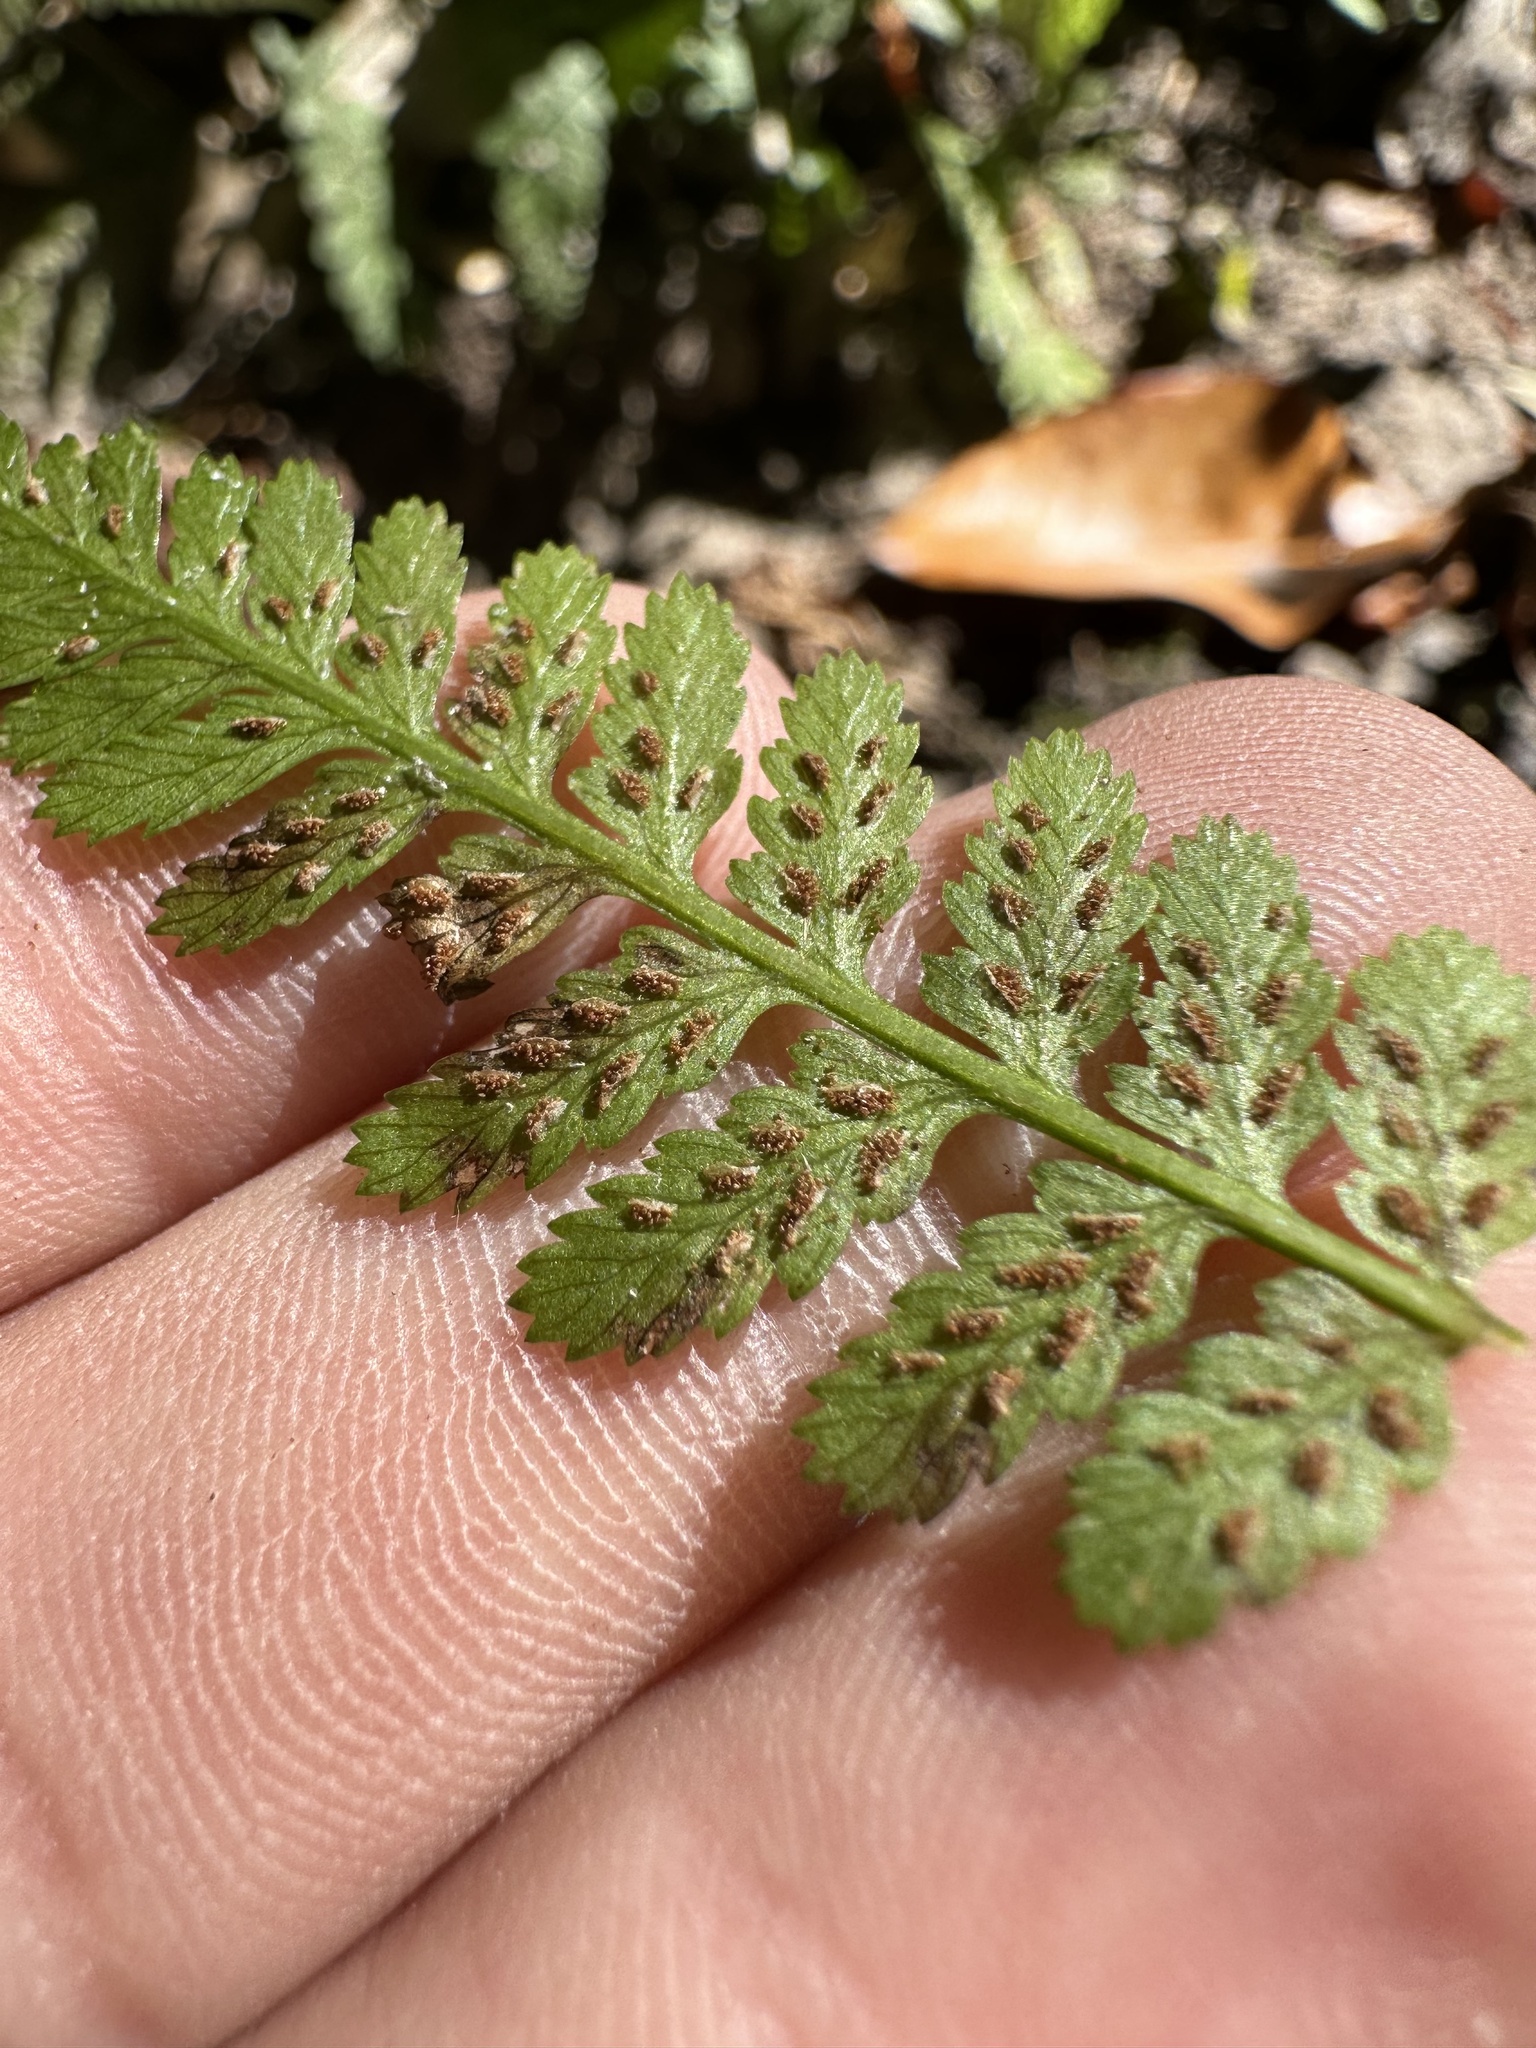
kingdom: Plantae
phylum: Tracheophyta
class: Polypodiopsida
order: Polypodiales
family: Athyriaceae
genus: Athyrium
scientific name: Athyrium asplenioides
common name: Southern lady fern
